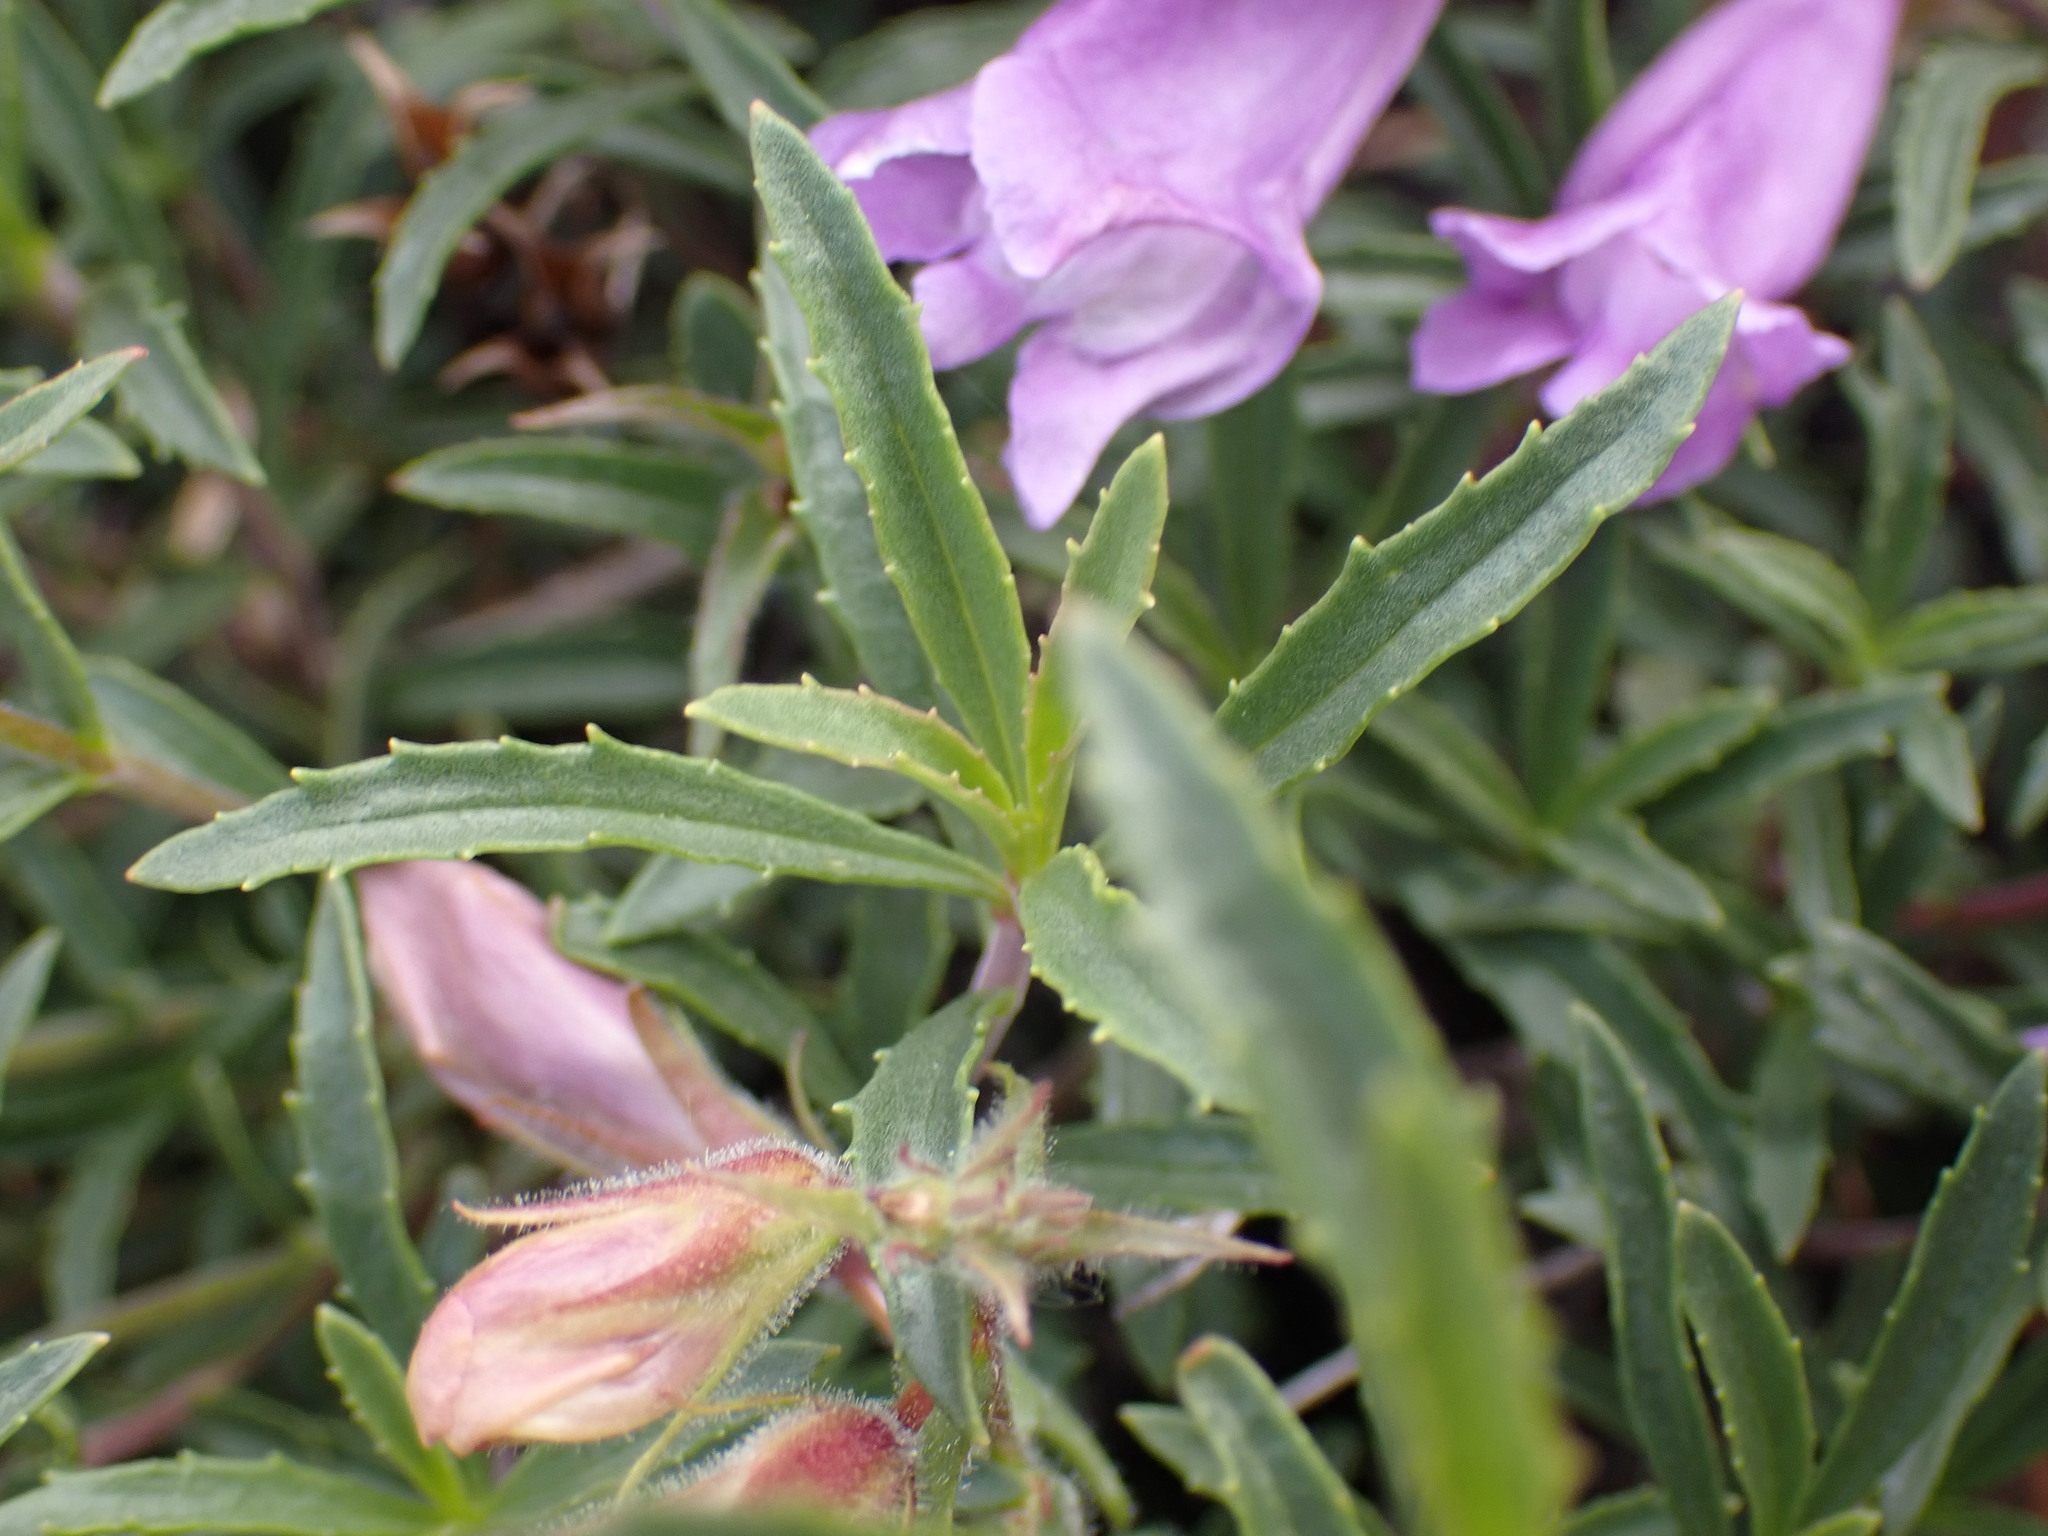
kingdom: Plantae
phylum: Tracheophyta
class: Magnoliopsida
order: Lamiales
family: Plantaginaceae
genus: Penstemon
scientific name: Penstemon fruticosus
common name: Bush penstemon
